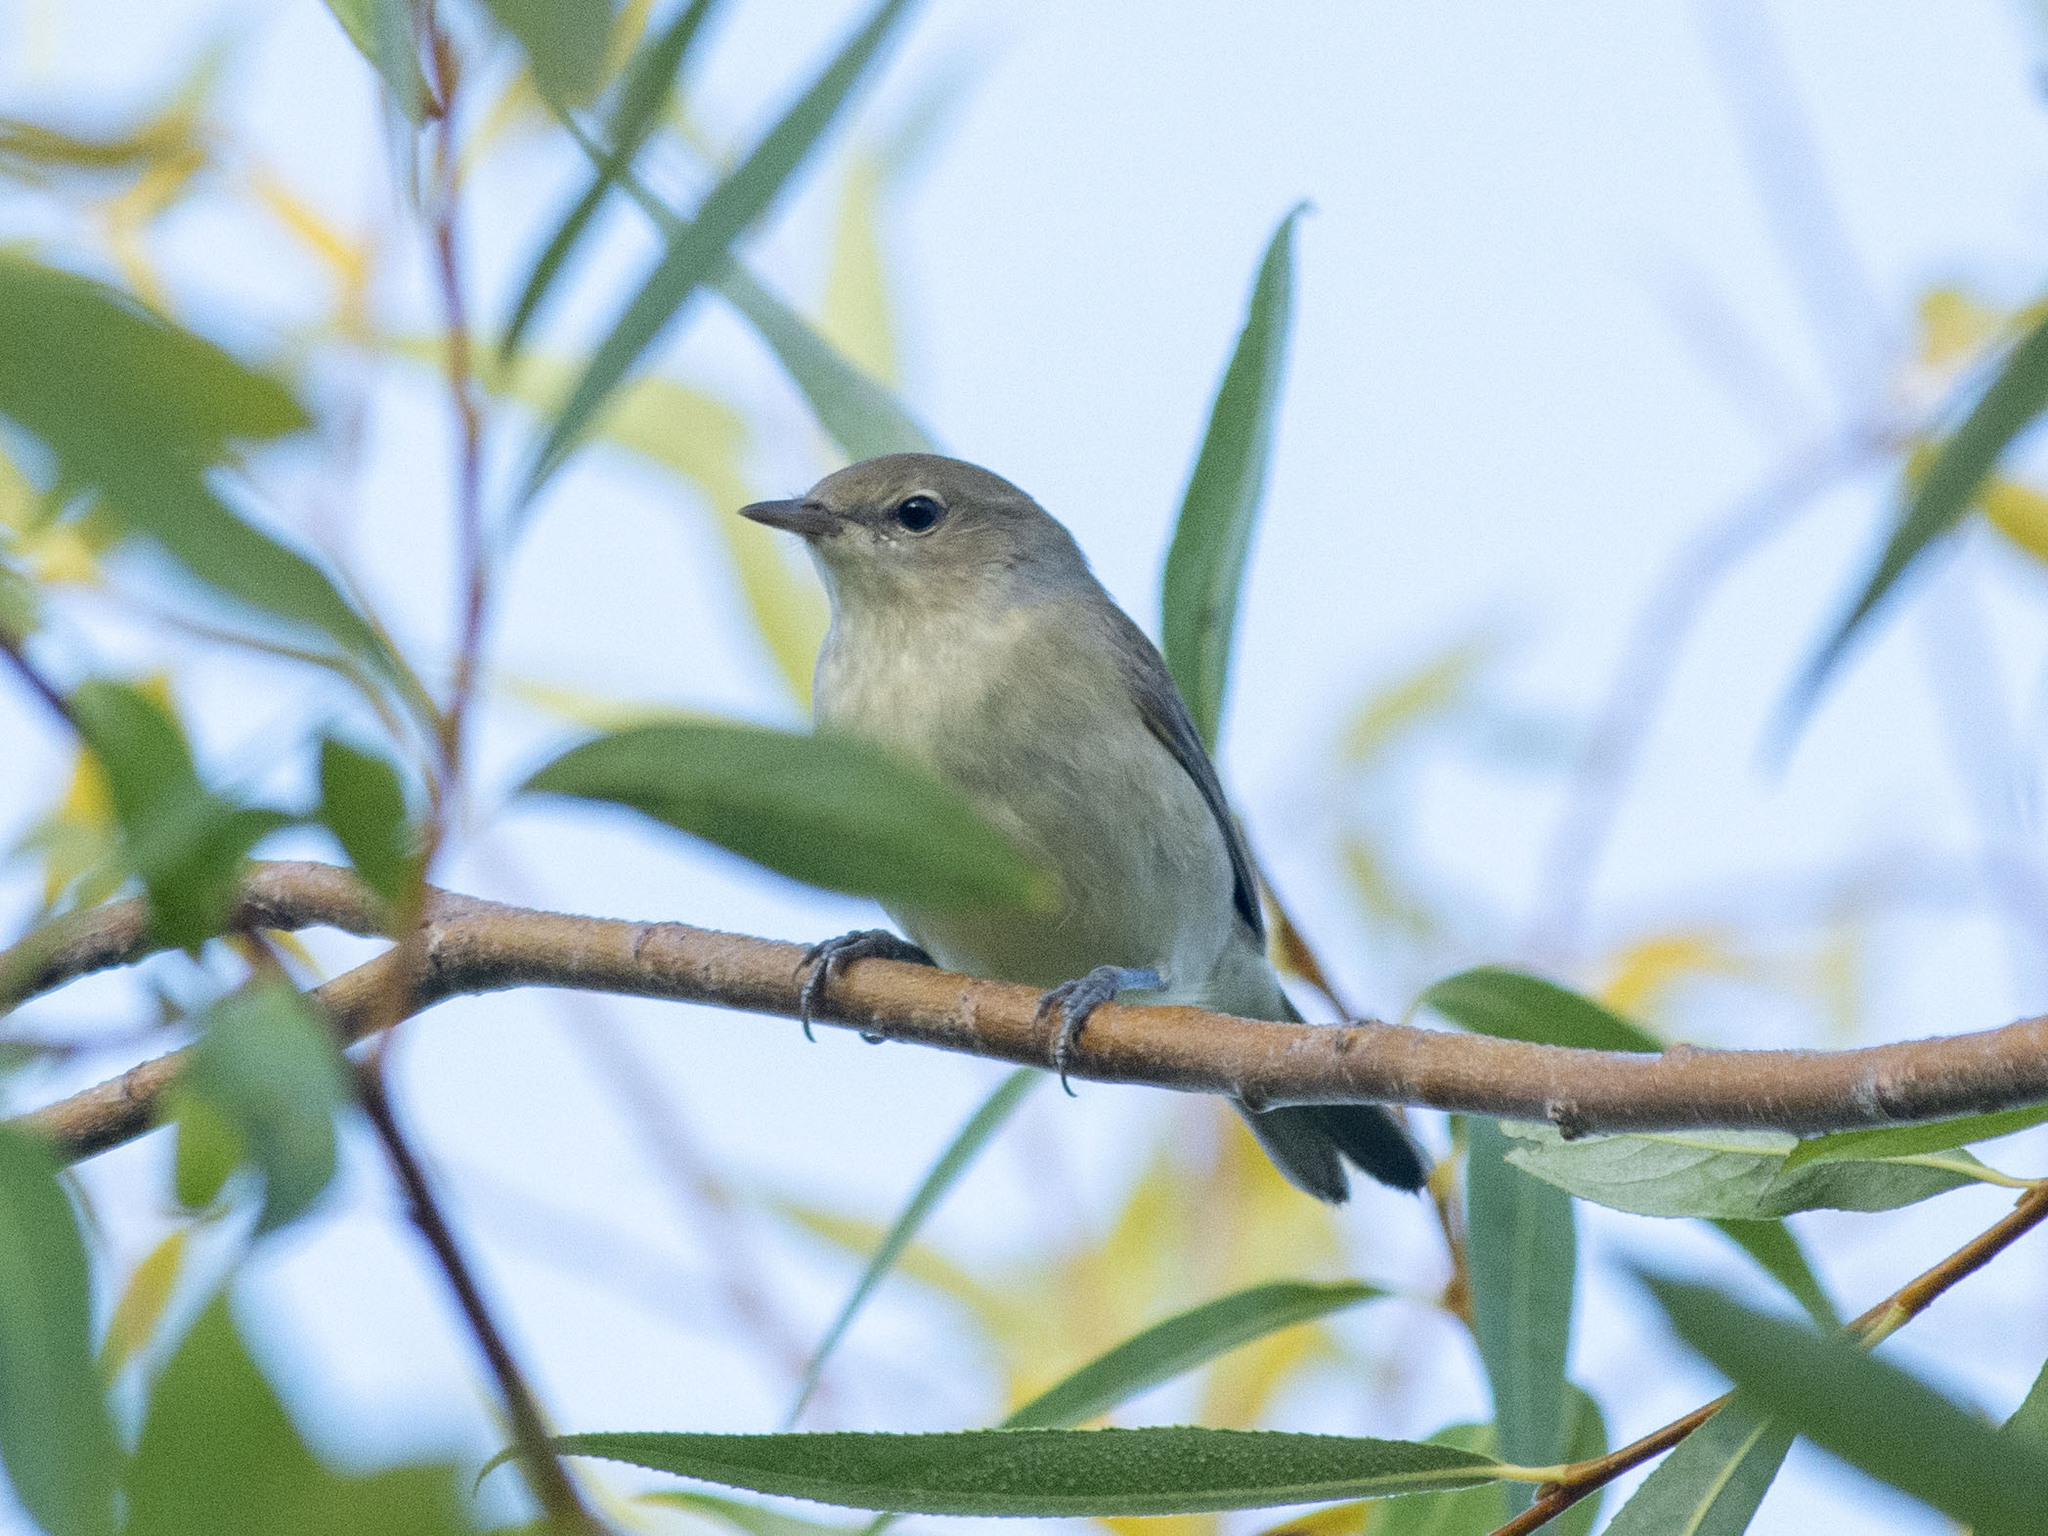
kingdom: Animalia
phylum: Chordata
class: Aves
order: Passeriformes
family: Sylviidae
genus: Sylvia
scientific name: Sylvia borin
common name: Garden warbler
